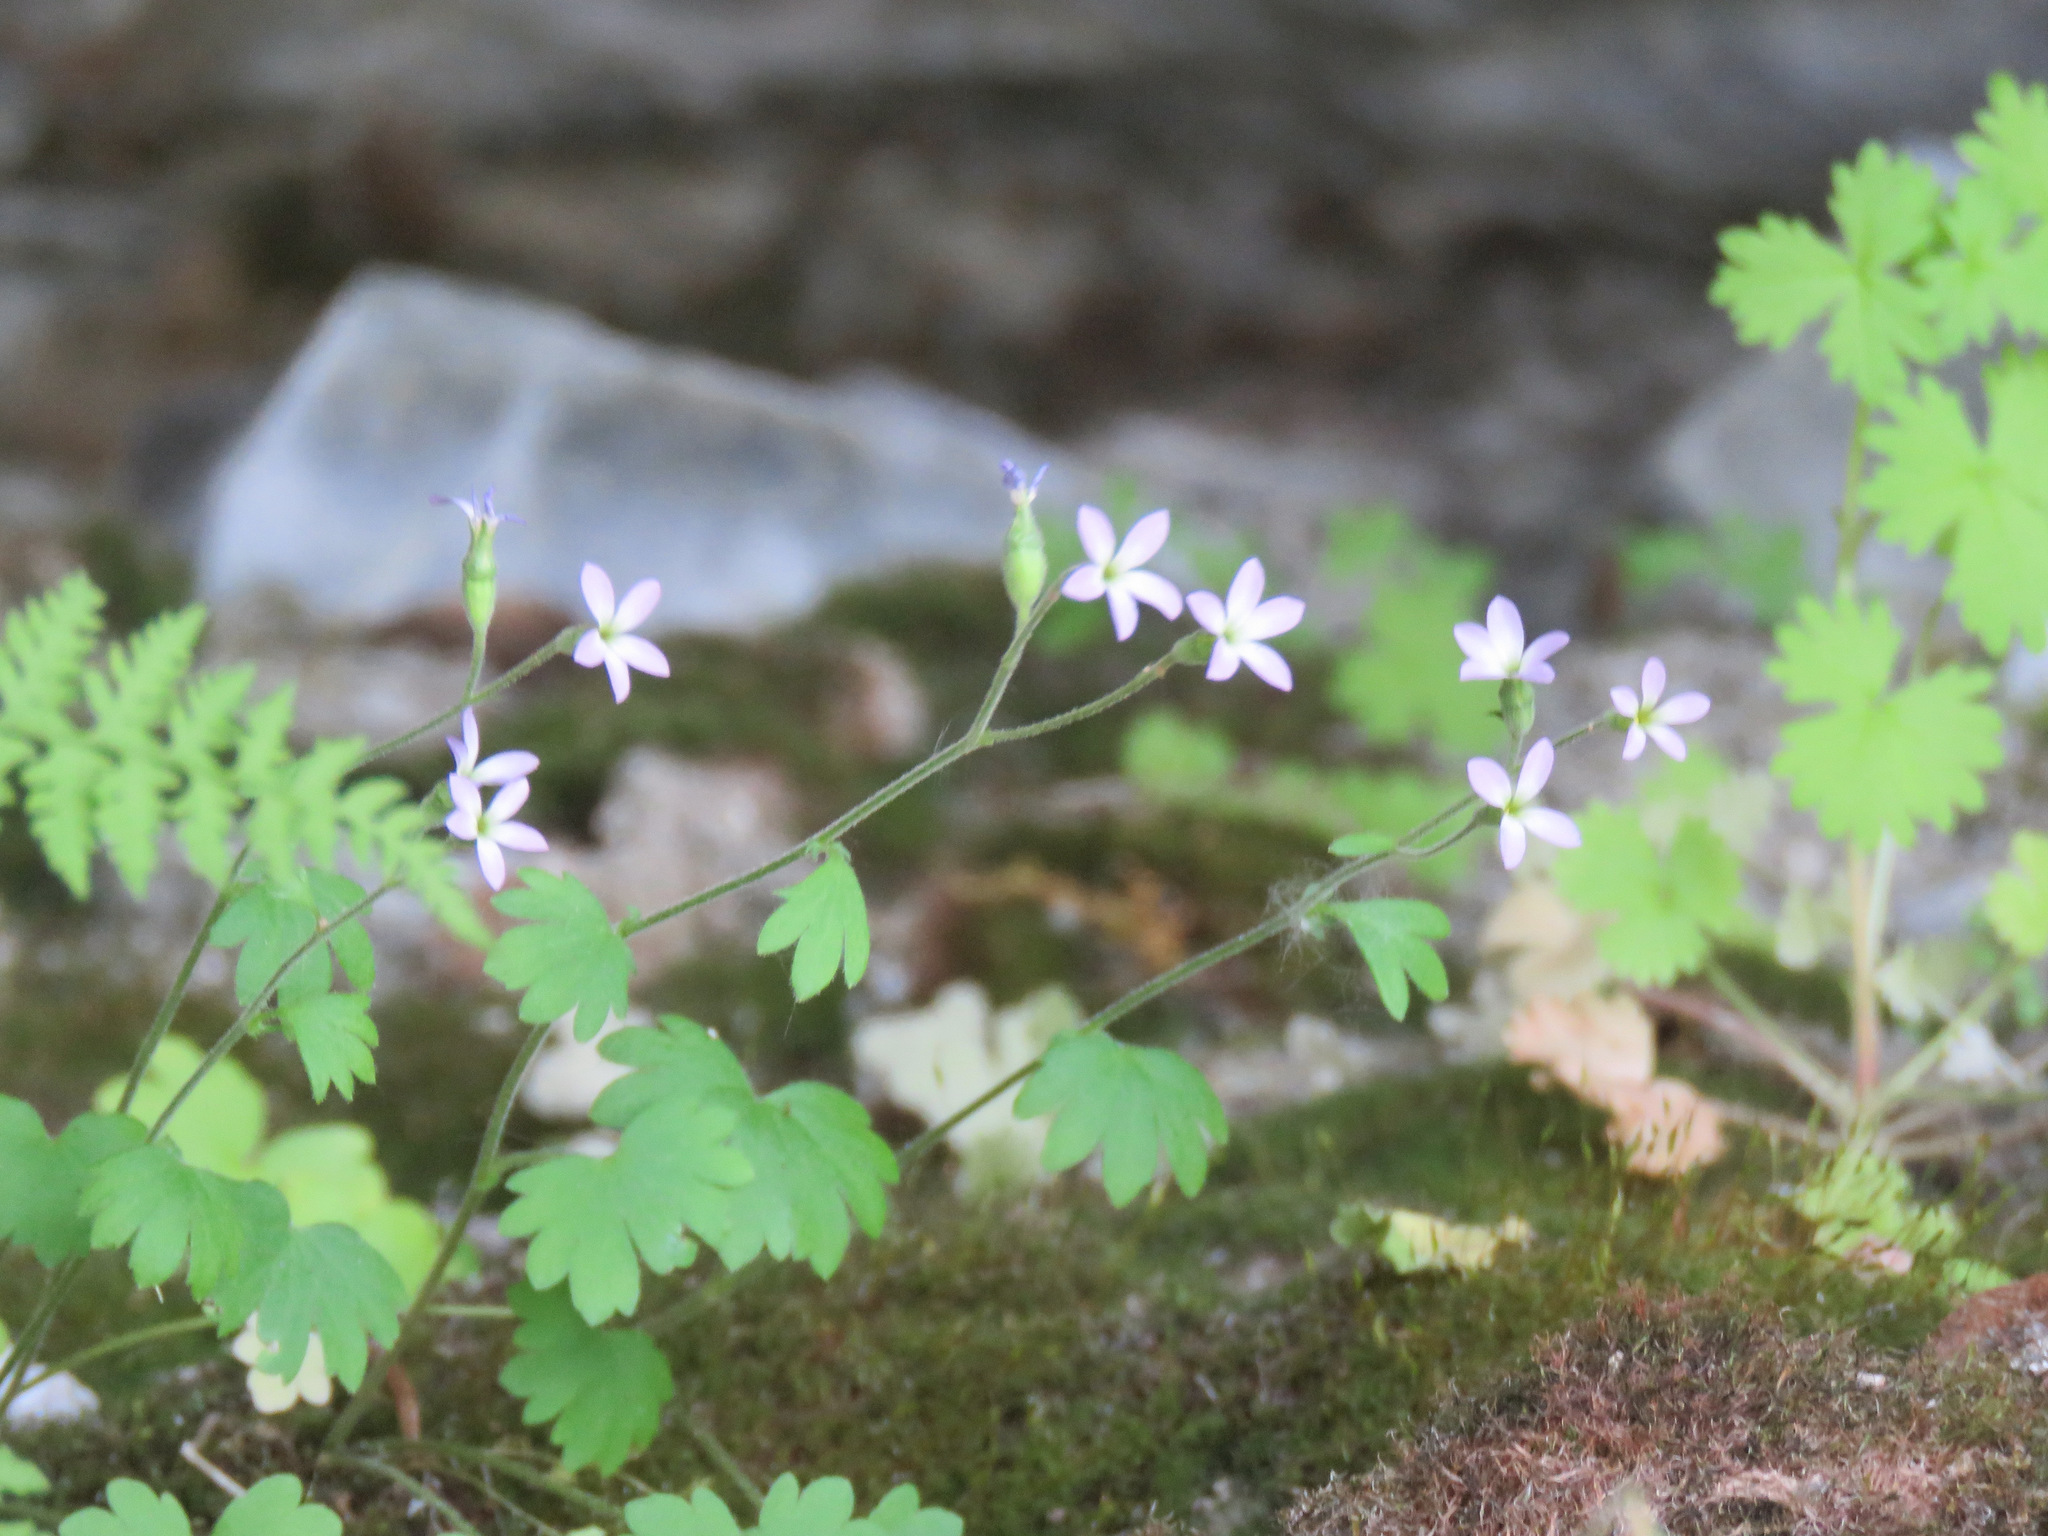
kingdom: Plantae
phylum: Tracheophyta
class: Magnoliopsida
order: Saxifragales
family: Saxifragaceae
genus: Suksdorfia
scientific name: Suksdorfia violacea
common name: Blue suksdorfia
